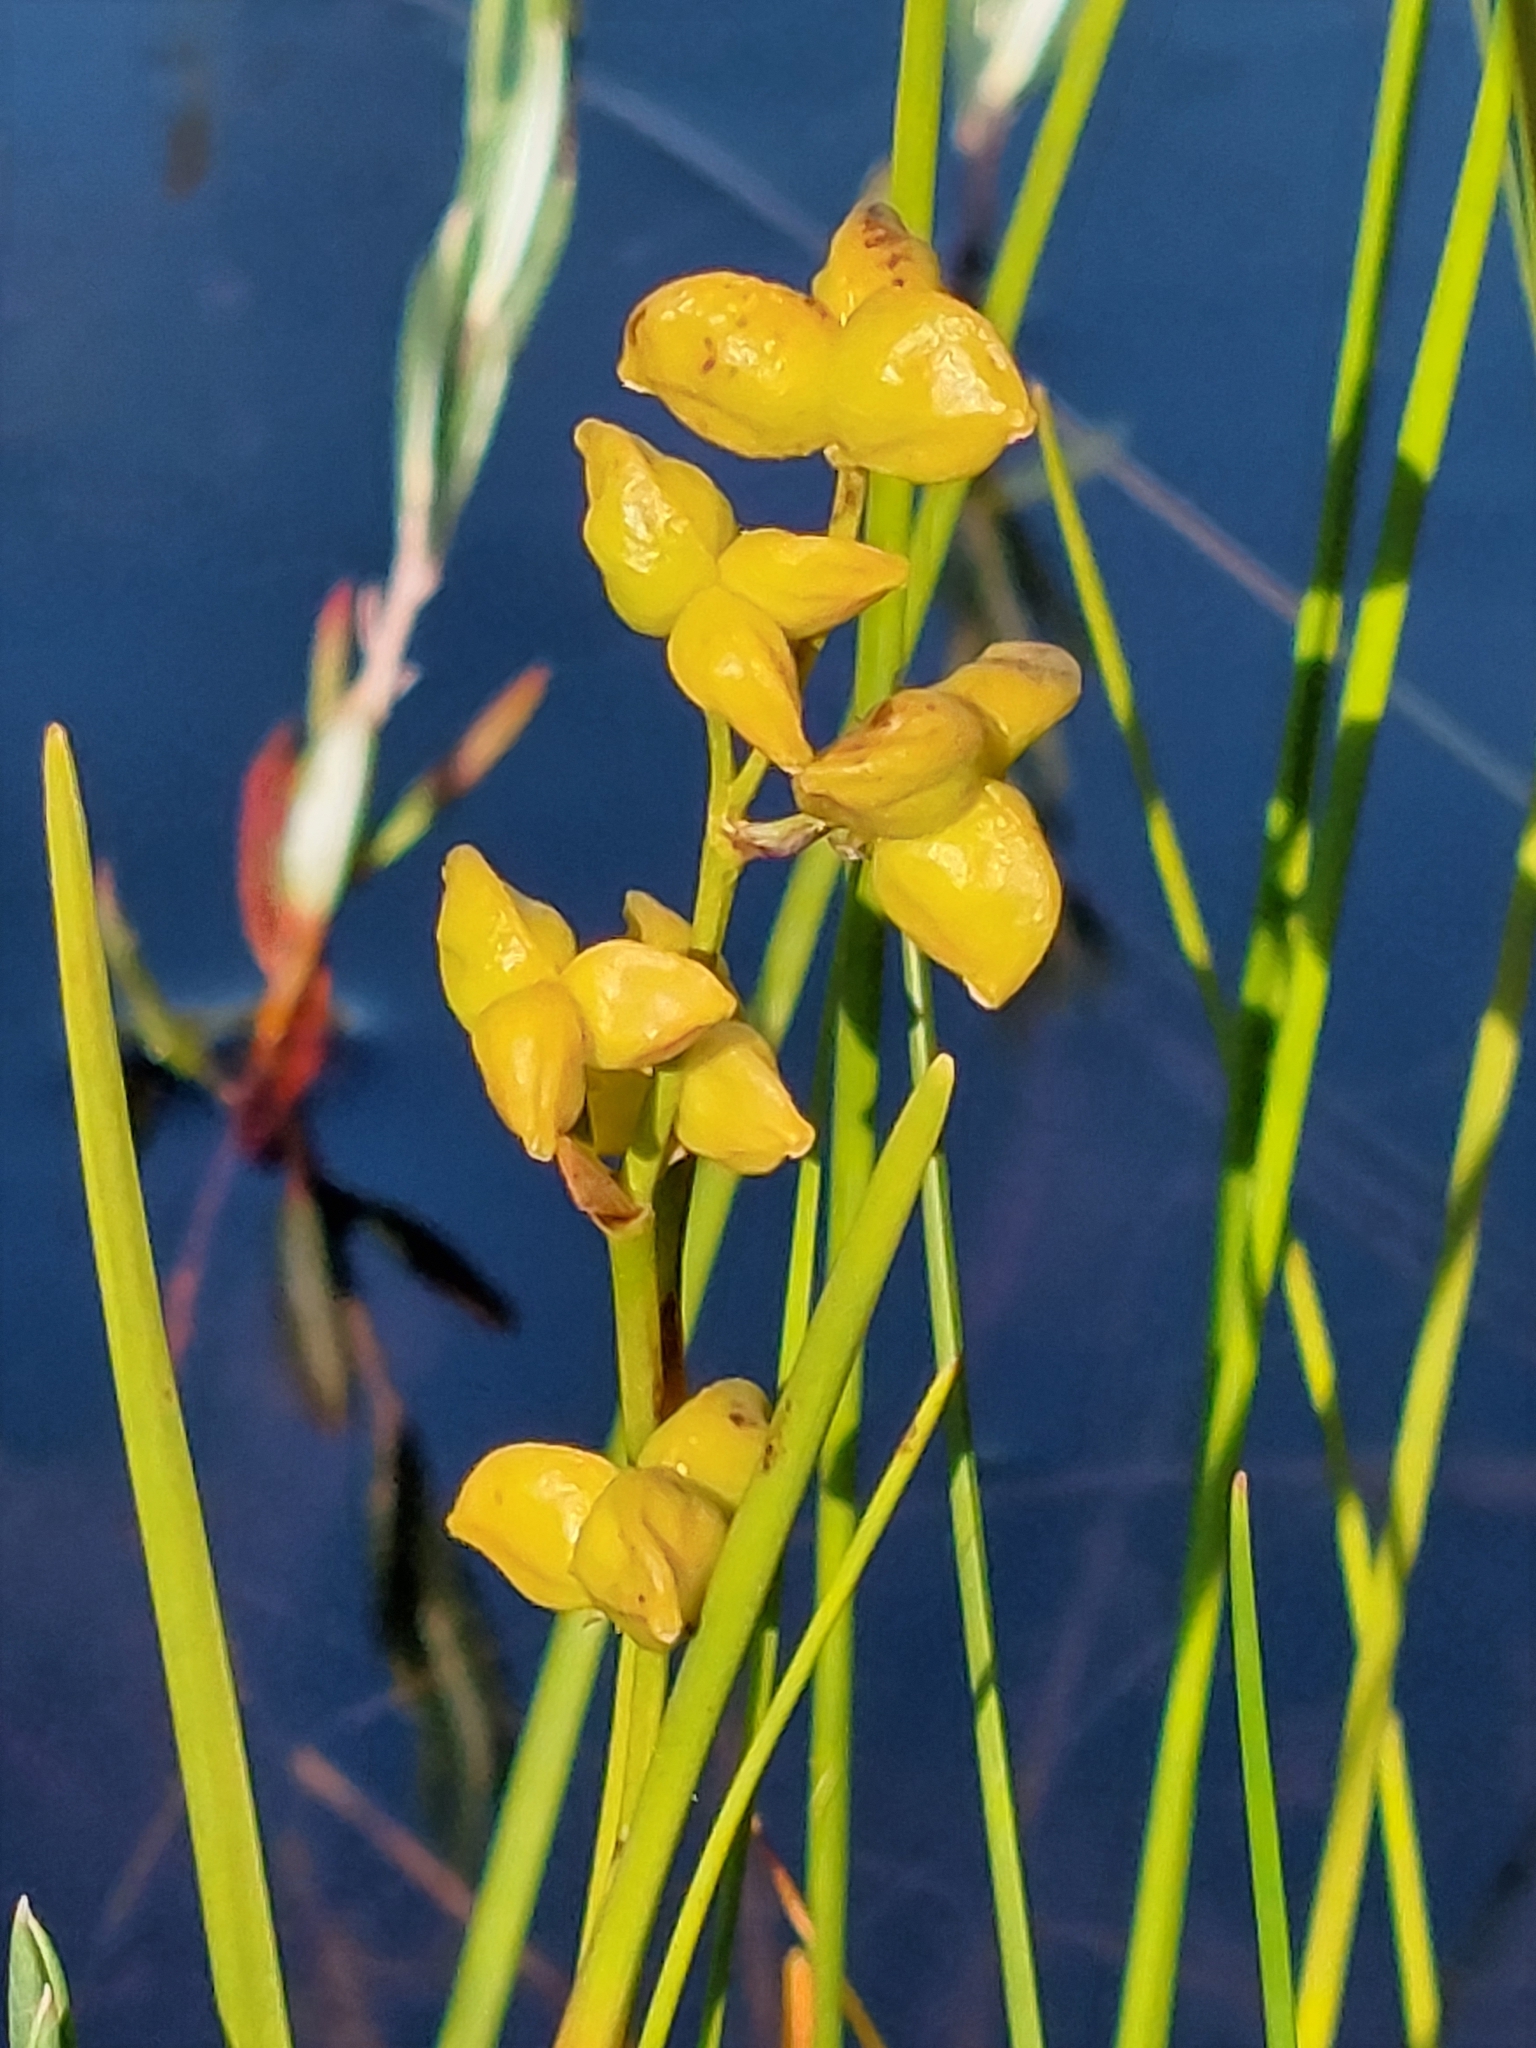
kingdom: Plantae
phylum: Tracheophyta
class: Liliopsida
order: Alismatales
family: Scheuchzeriaceae
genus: Scheuchzeria
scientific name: Scheuchzeria palustris
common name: Rannoch-rush
